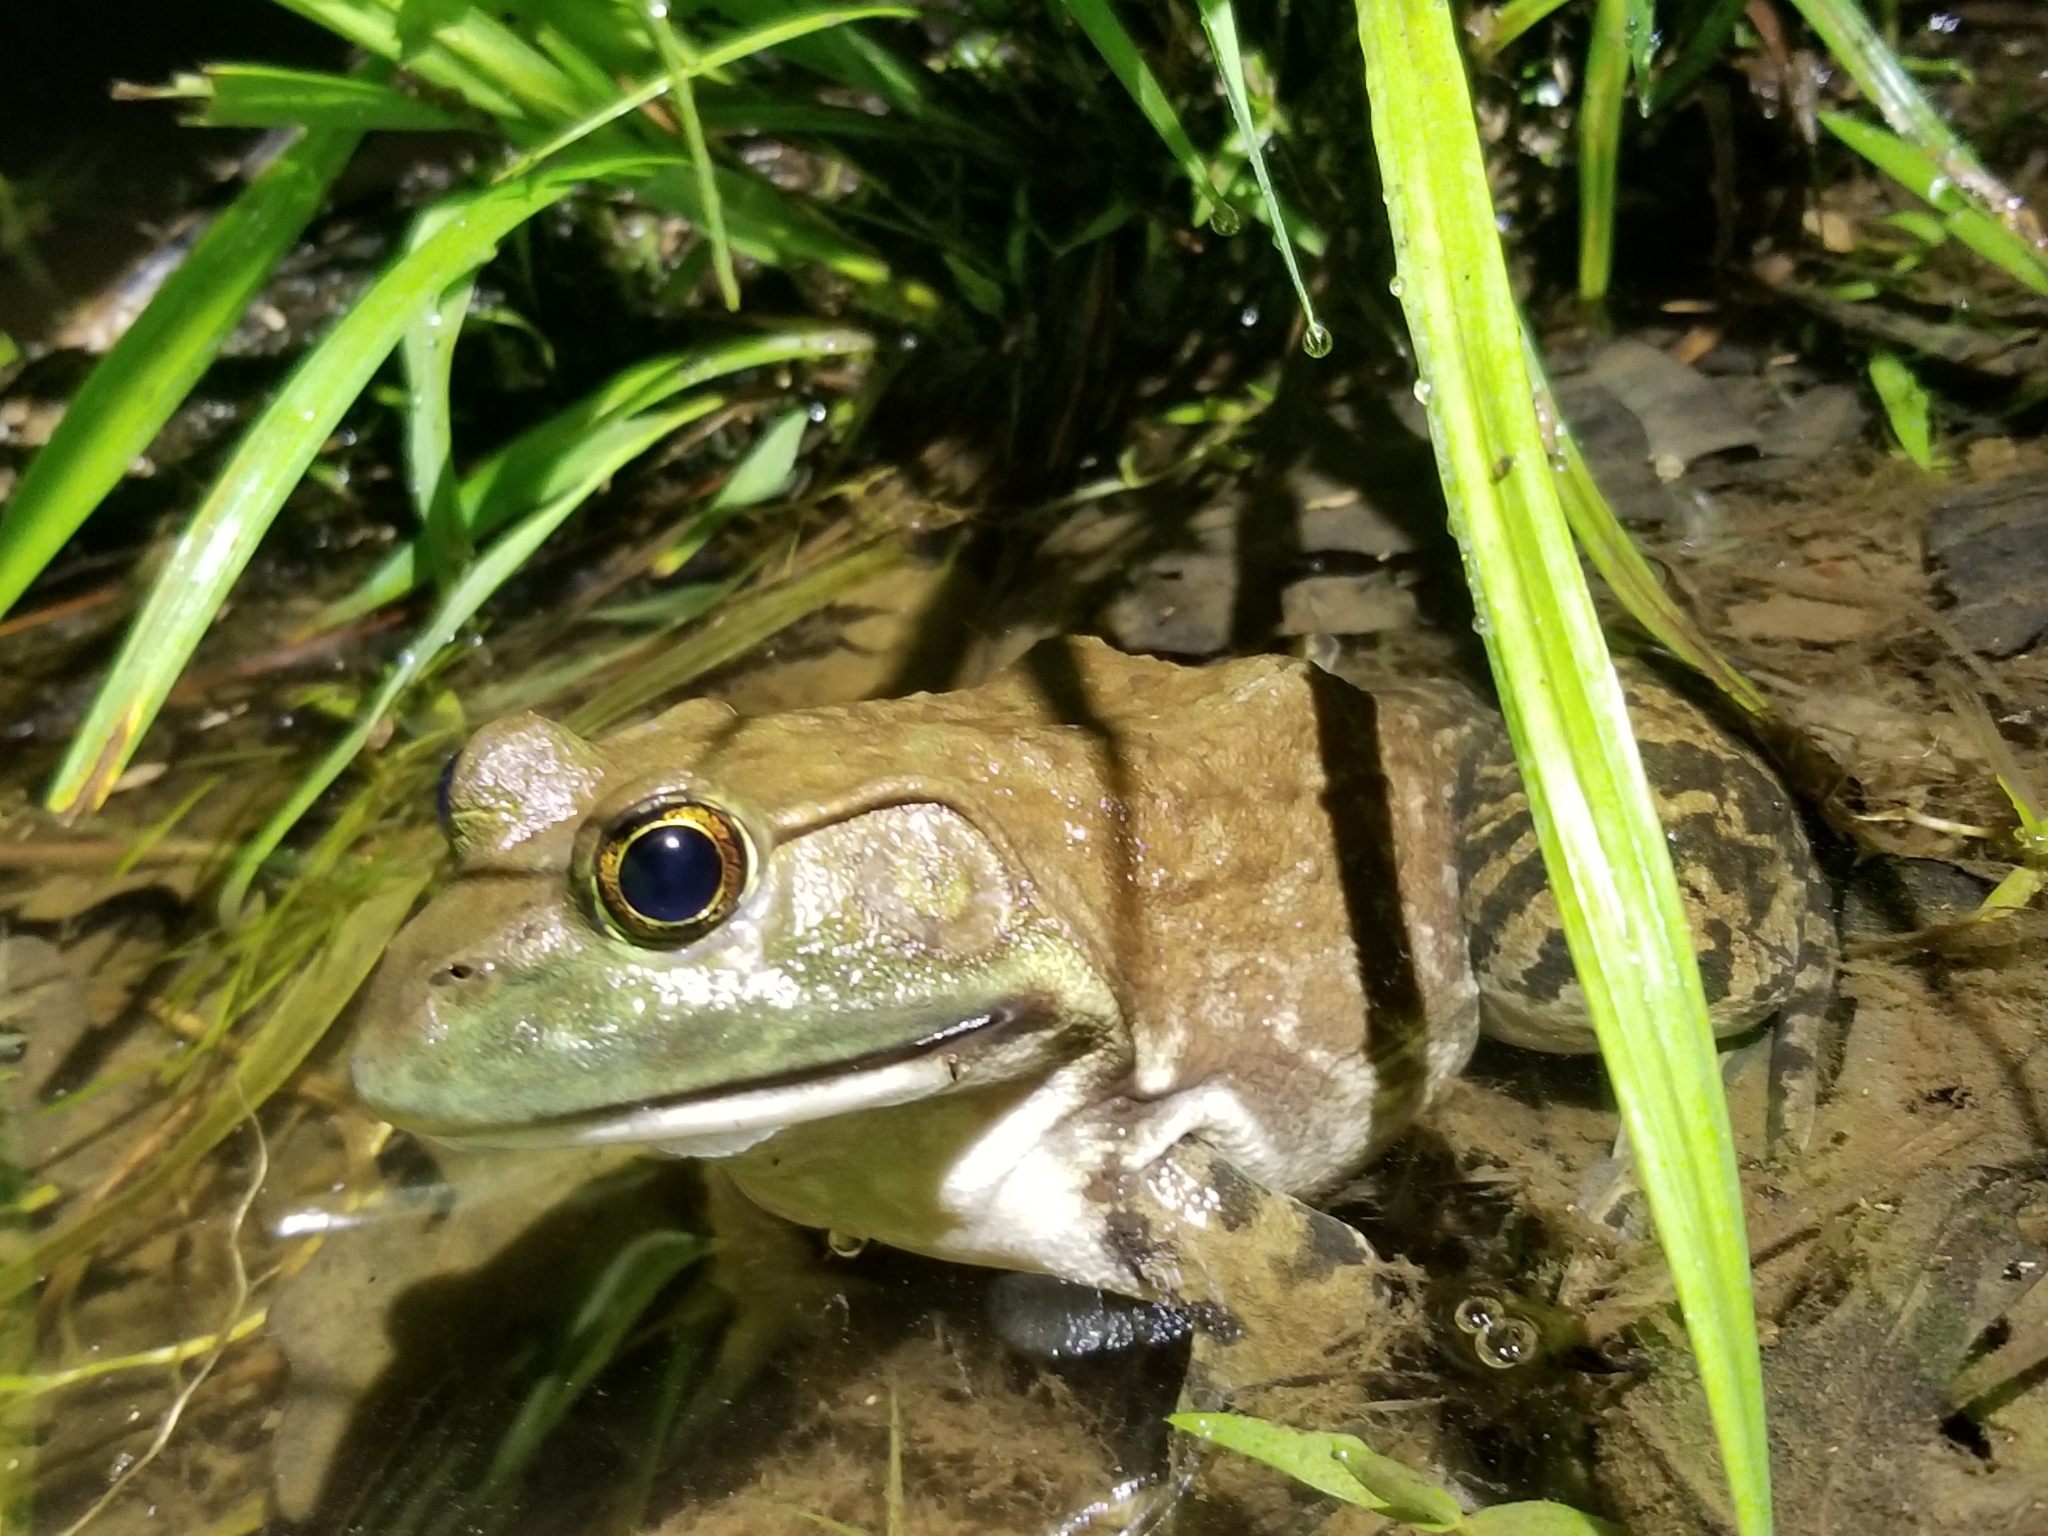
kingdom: Animalia
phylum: Chordata
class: Amphibia
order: Anura
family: Ranidae
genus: Lithobates
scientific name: Lithobates catesbeianus
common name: American bullfrog
